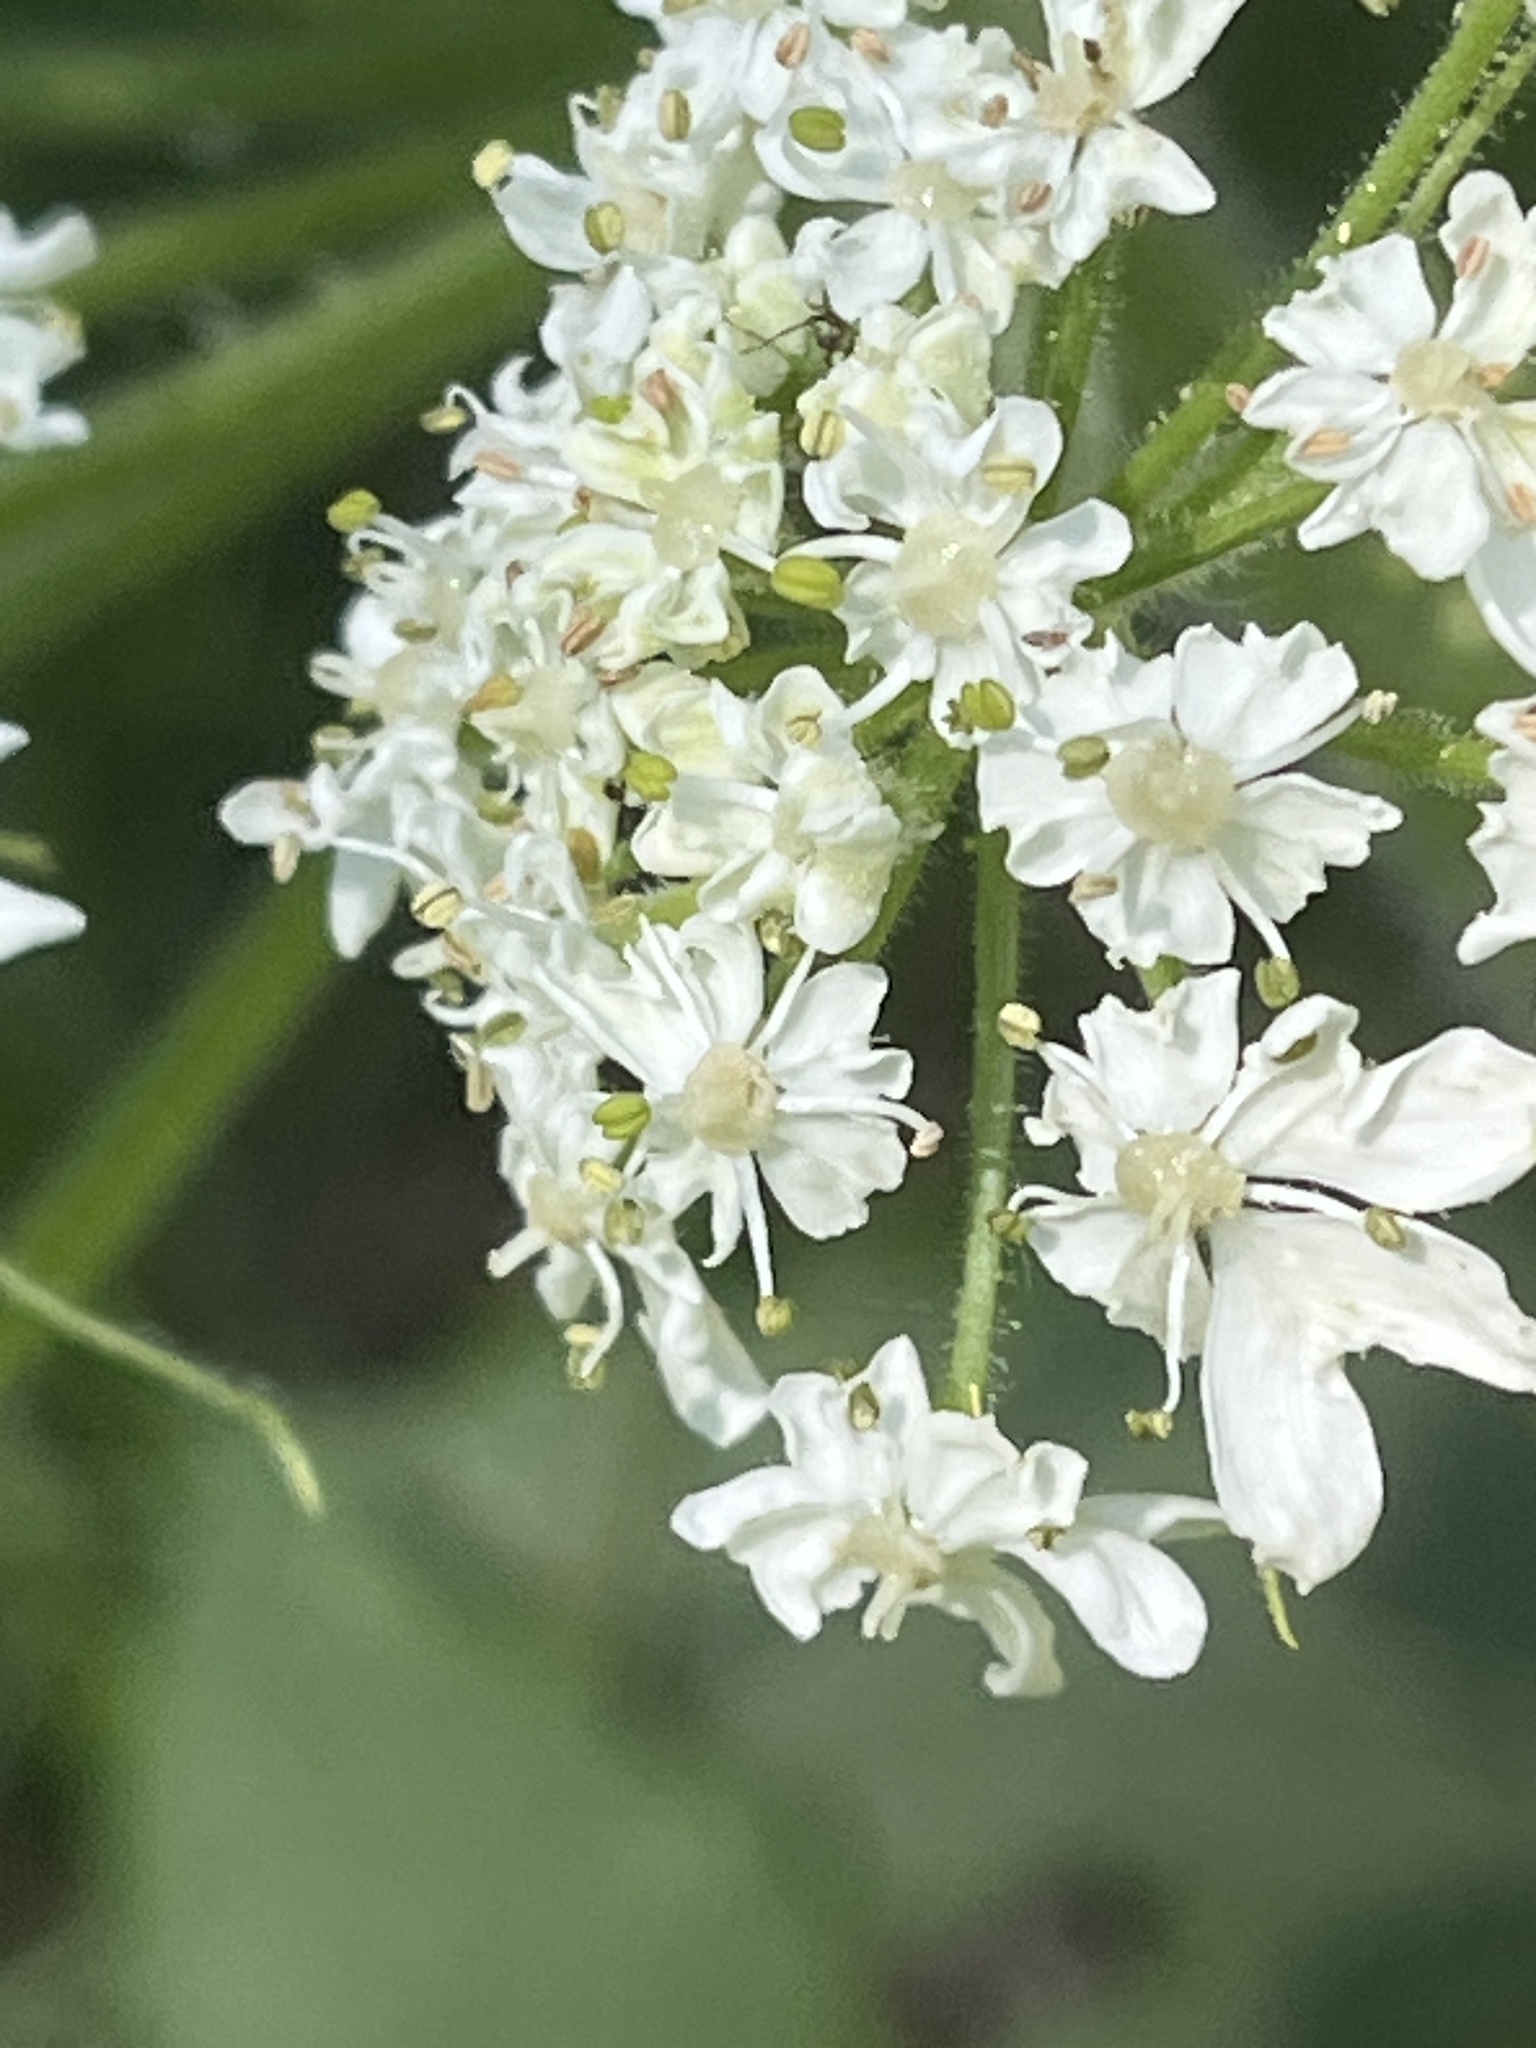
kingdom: Plantae
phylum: Tracheophyta
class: Magnoliopsida
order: Apiales
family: Apiaceae
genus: Heracleum
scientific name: Heracleum maximum
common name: American cow parsnip
